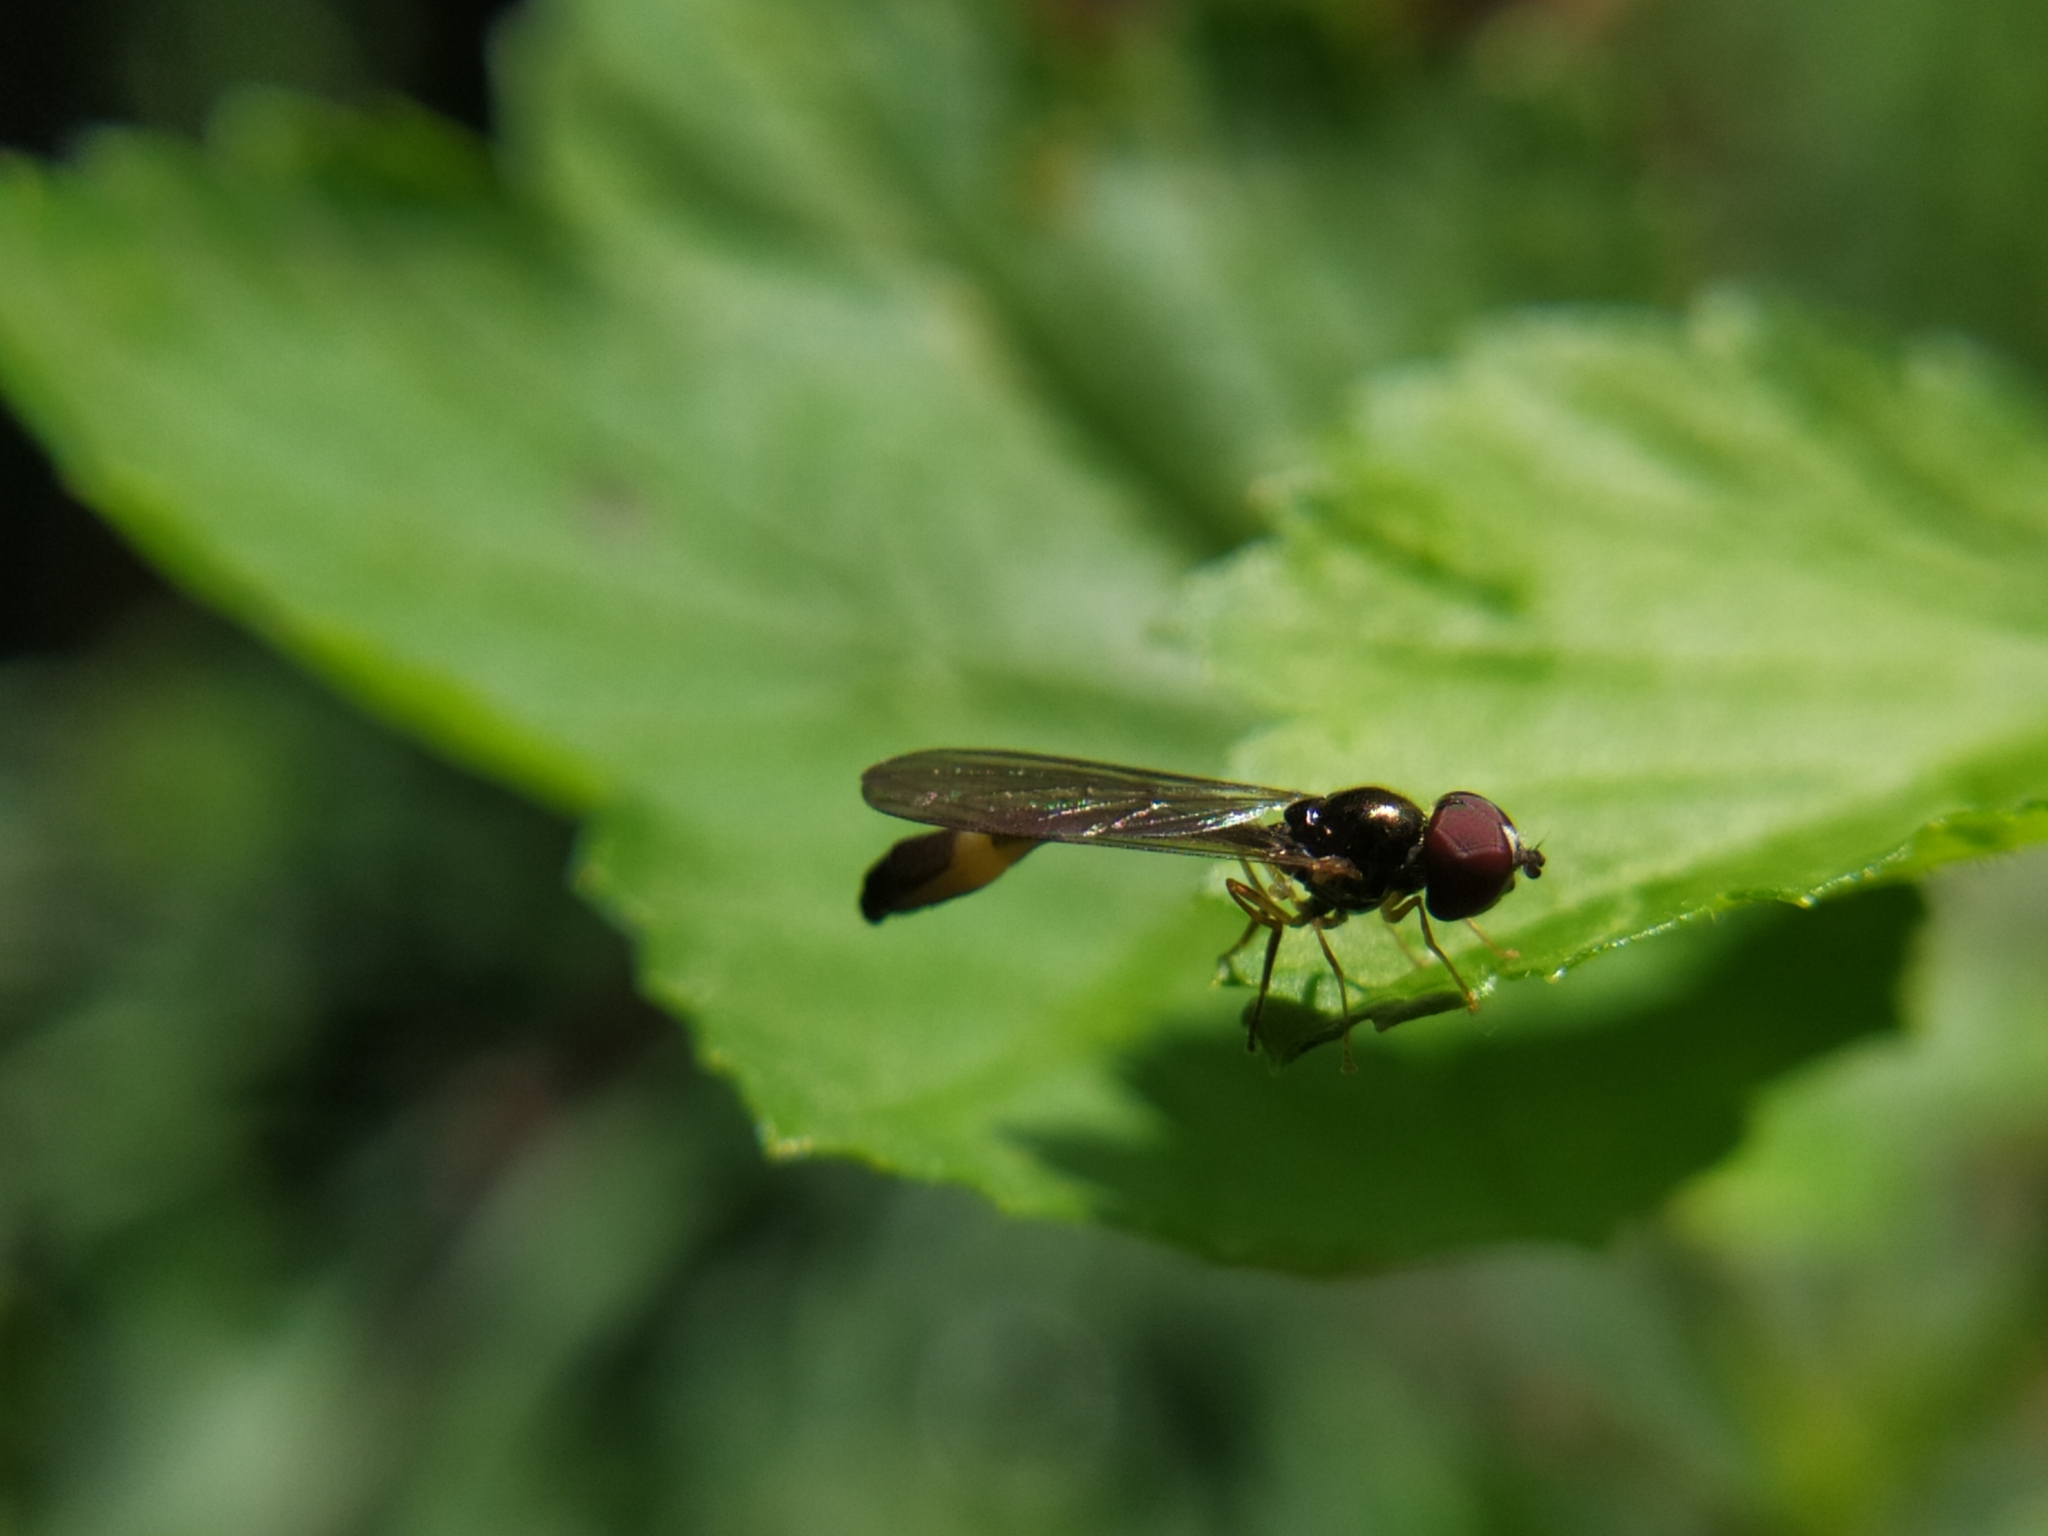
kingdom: Animalia
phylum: Arthropoda
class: Insecta
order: Diptera
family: Syrphidae
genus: Baccha
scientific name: Baccha elongata
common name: Common dainty
